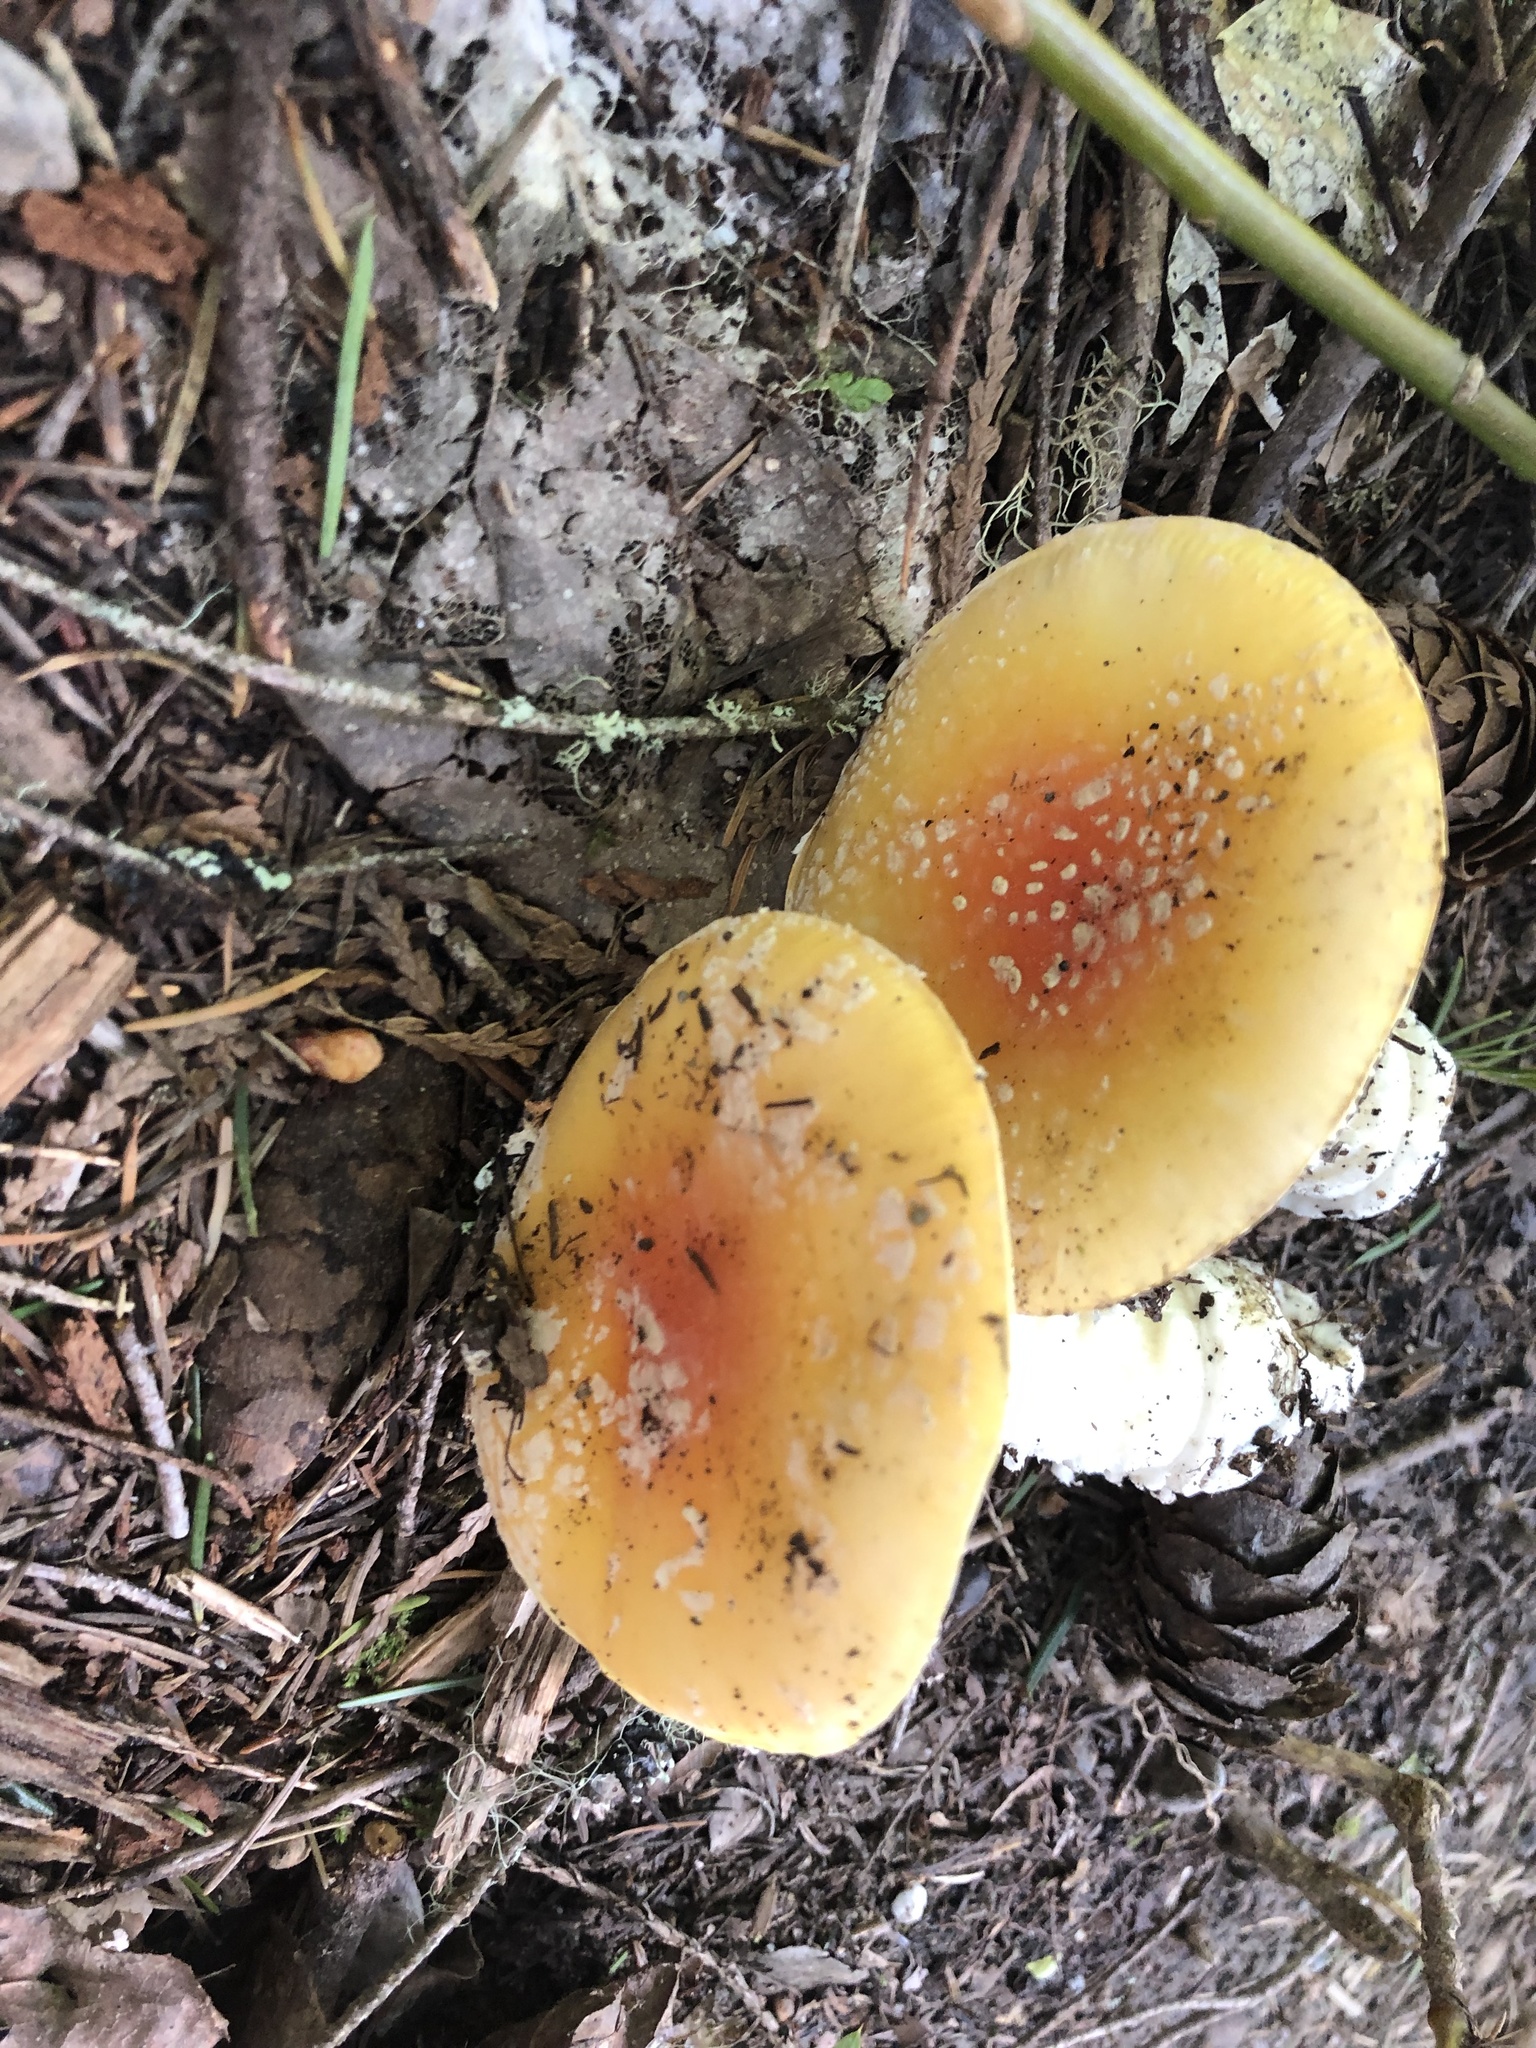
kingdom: Fungi
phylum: Basidiomycota
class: Agaricomycetes
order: Agaricales
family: Amanitaceae
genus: Amanita
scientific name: Amanita muscaria
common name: Fly agaric
